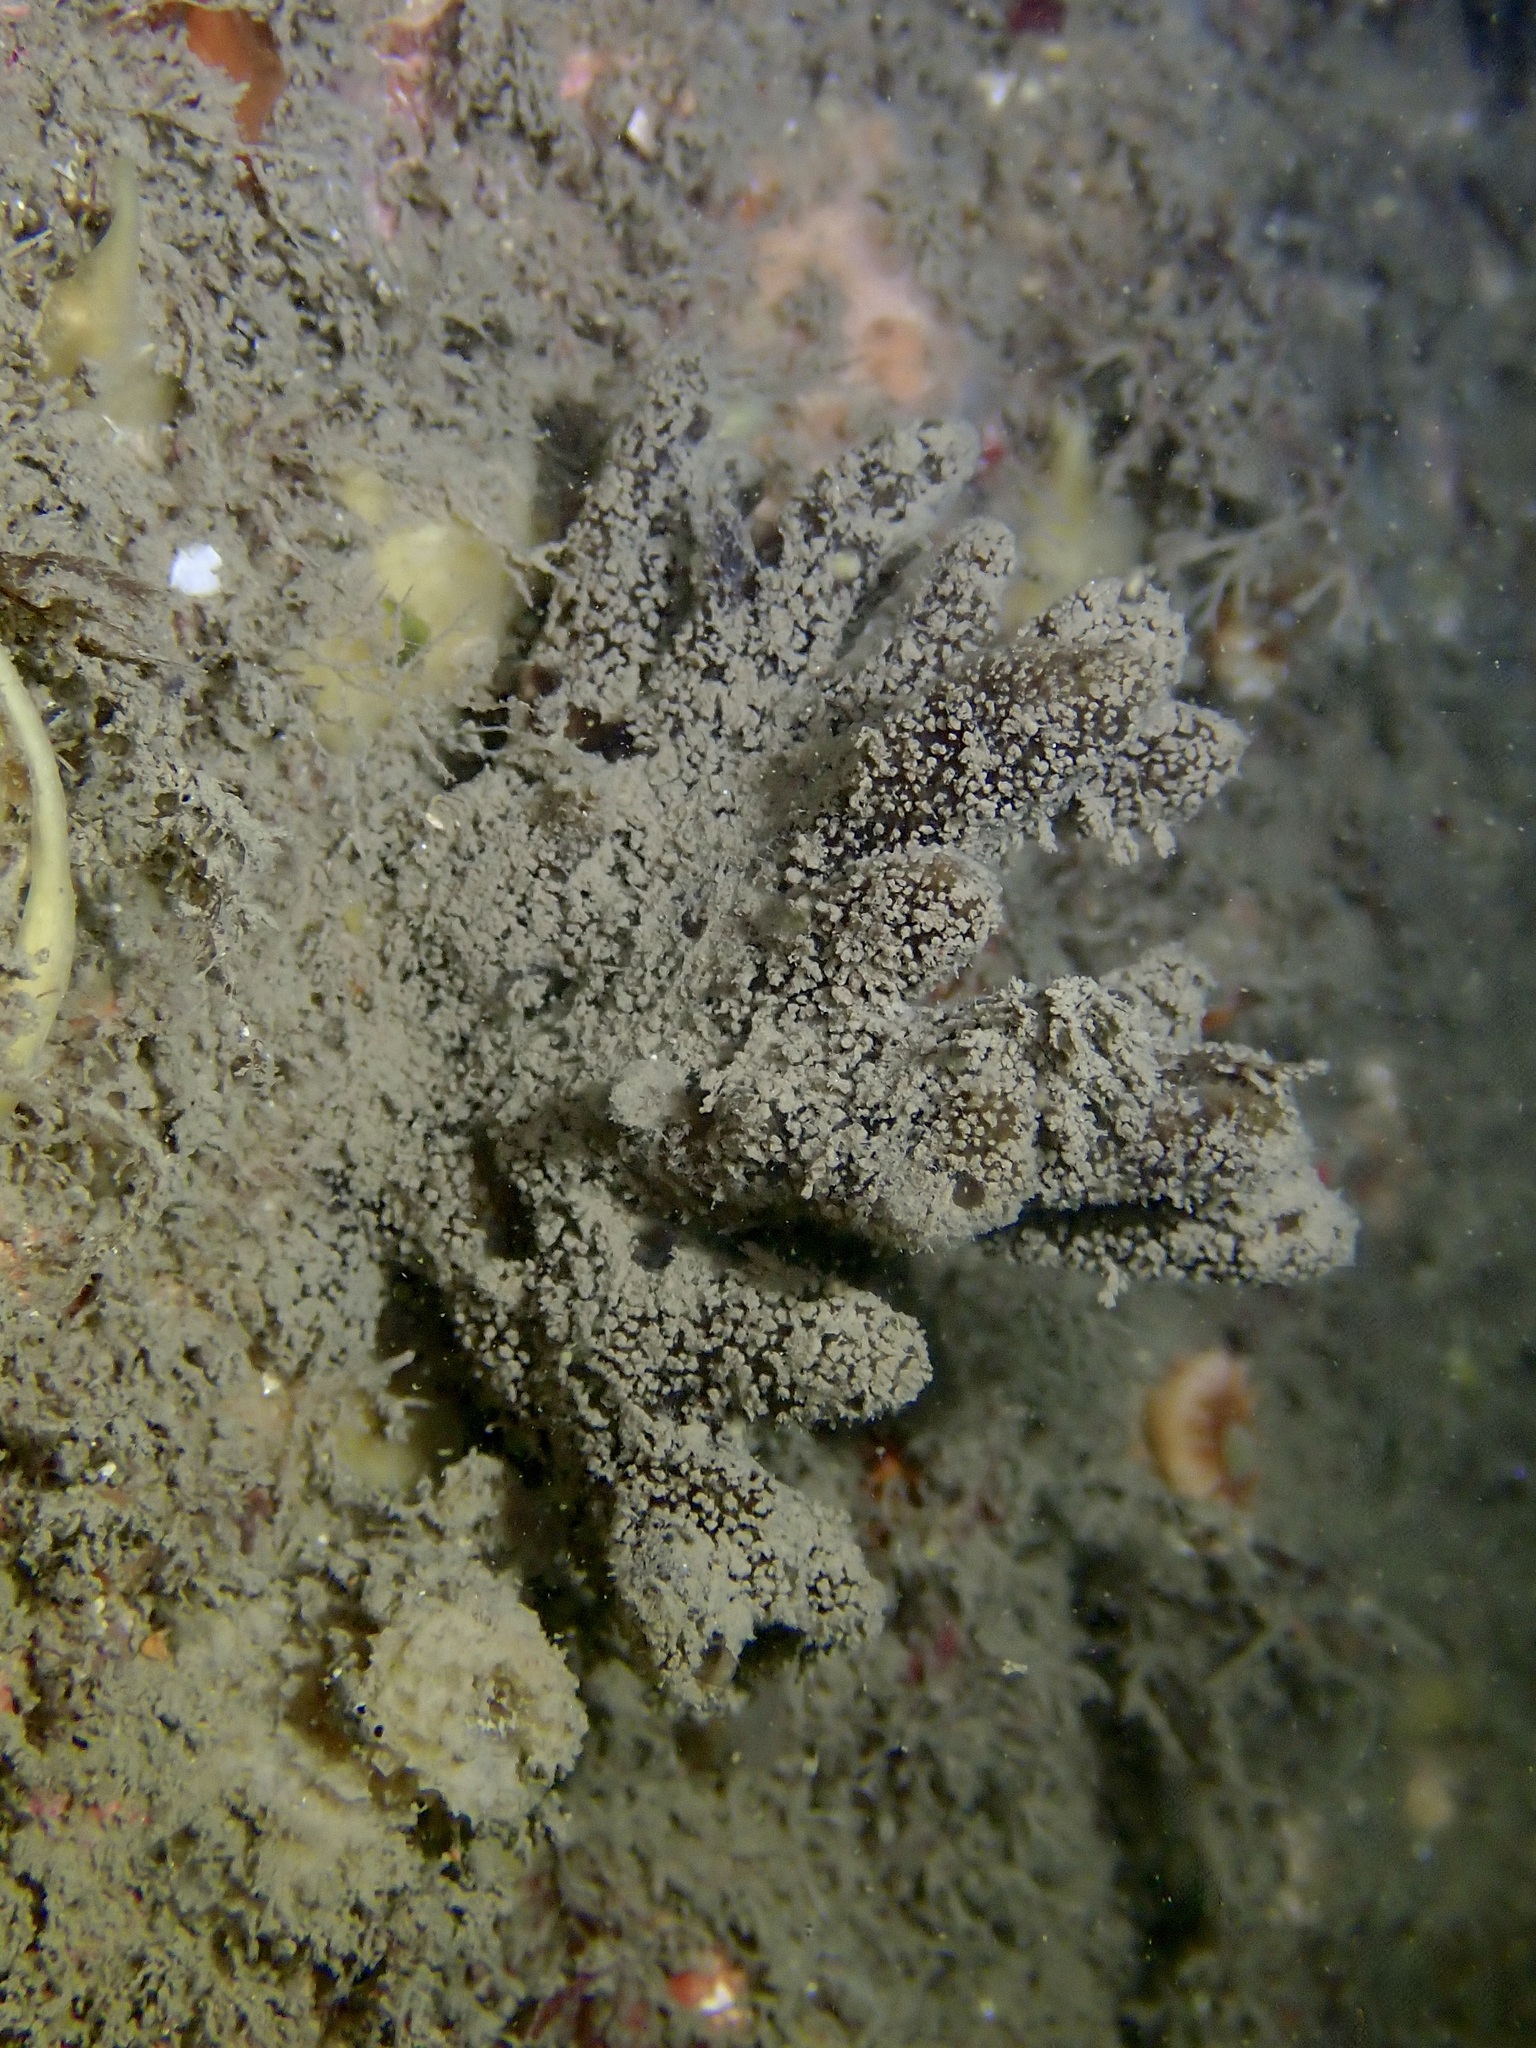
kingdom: Animalia
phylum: Porifera
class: Demospongiae
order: Axinellida
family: Raspailiidae
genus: Raspailia
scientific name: Raspailia ramosa
